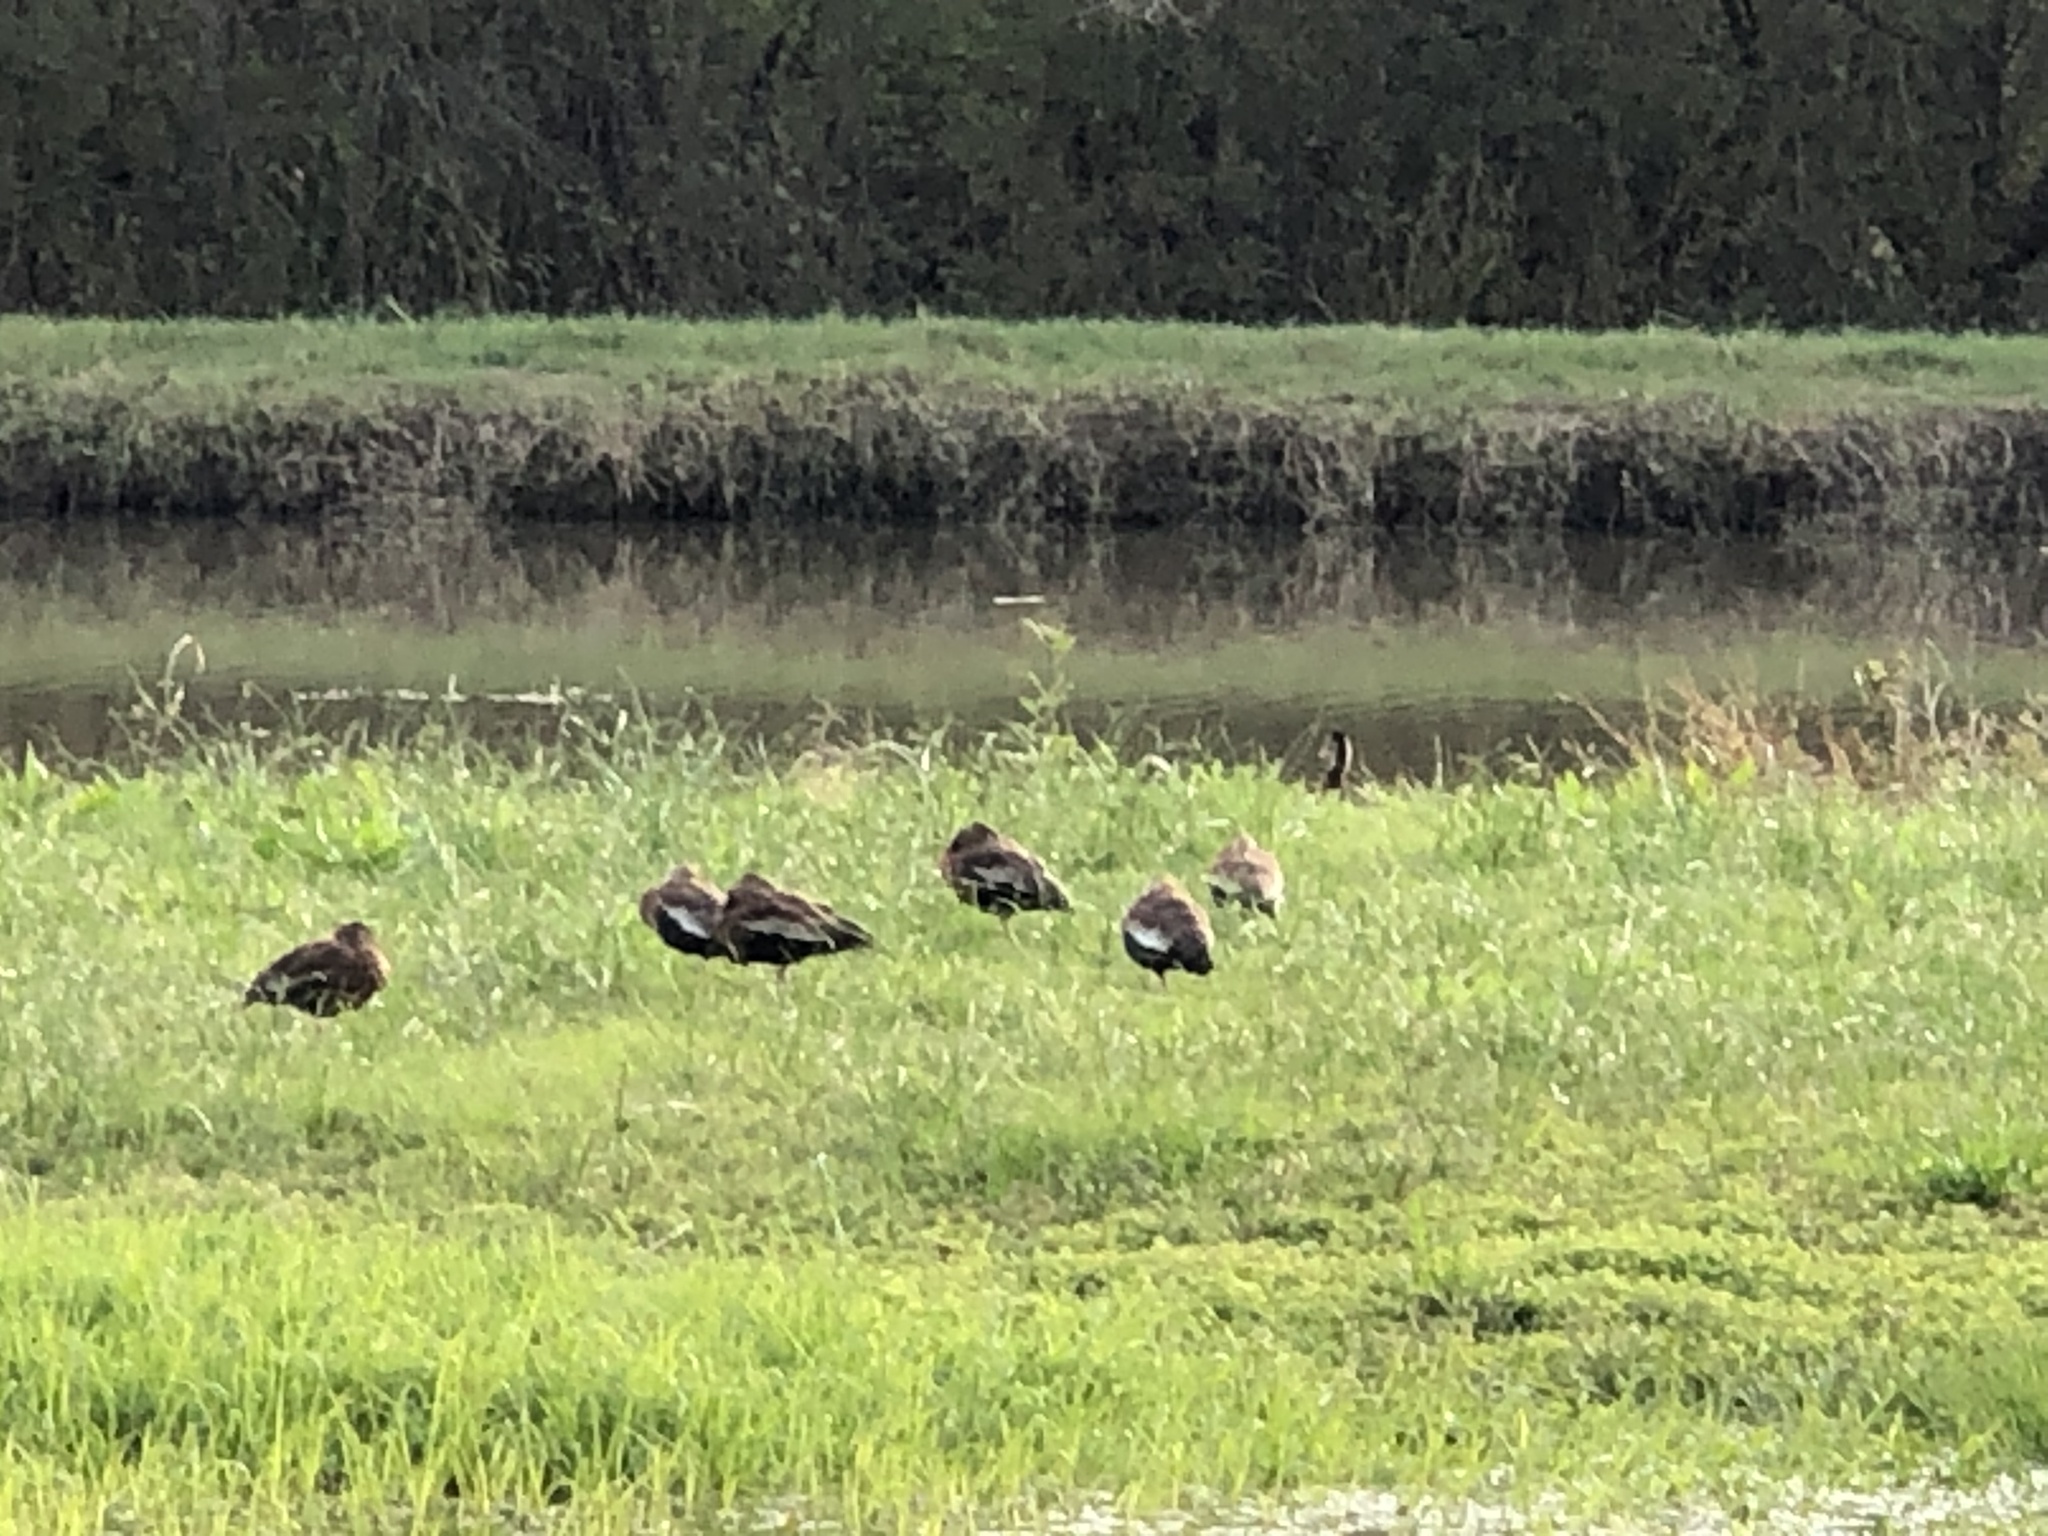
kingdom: Animalia
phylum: Chordata
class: Aves
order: Anseriformes
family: Anatidae
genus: Dendrocygna
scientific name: Dendrocygna autumnalis
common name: Black-bellied whistling duck
